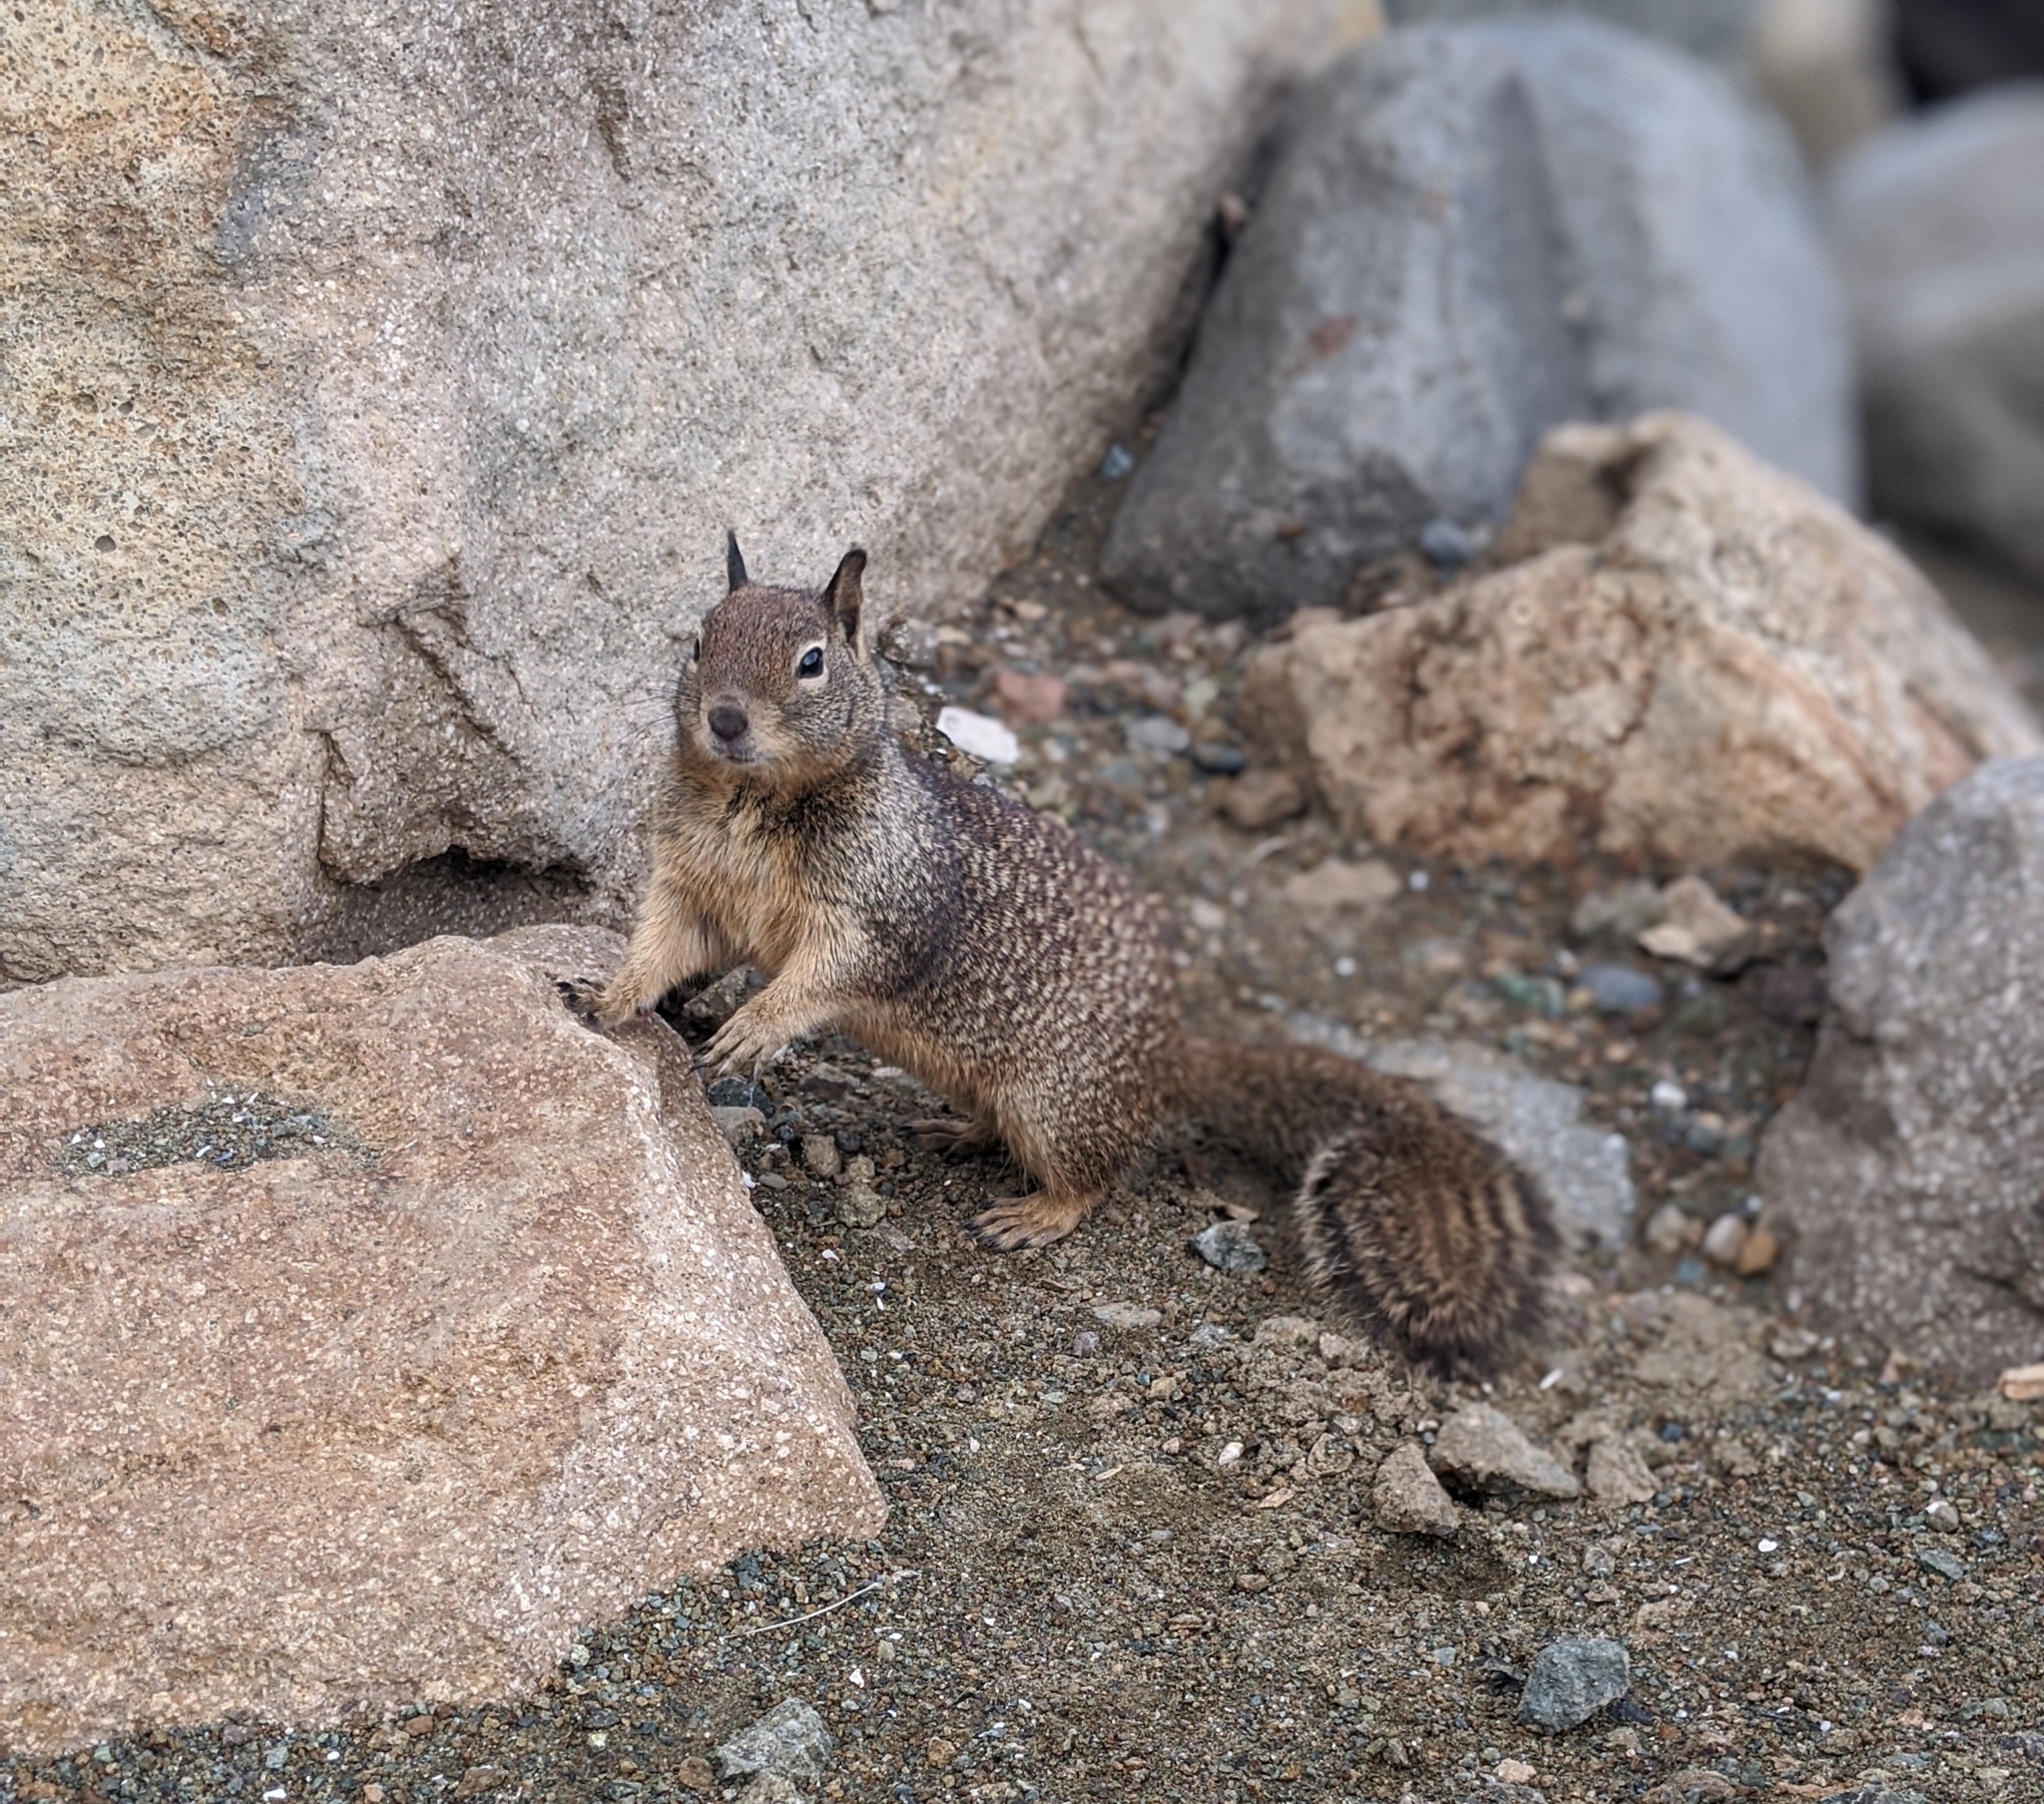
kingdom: Animalia
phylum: Chordata
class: Mammalia
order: Rodentia
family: Sciuridae
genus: Otospermophilus
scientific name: Otospermophilus beecheyi
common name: California ground squirrel
